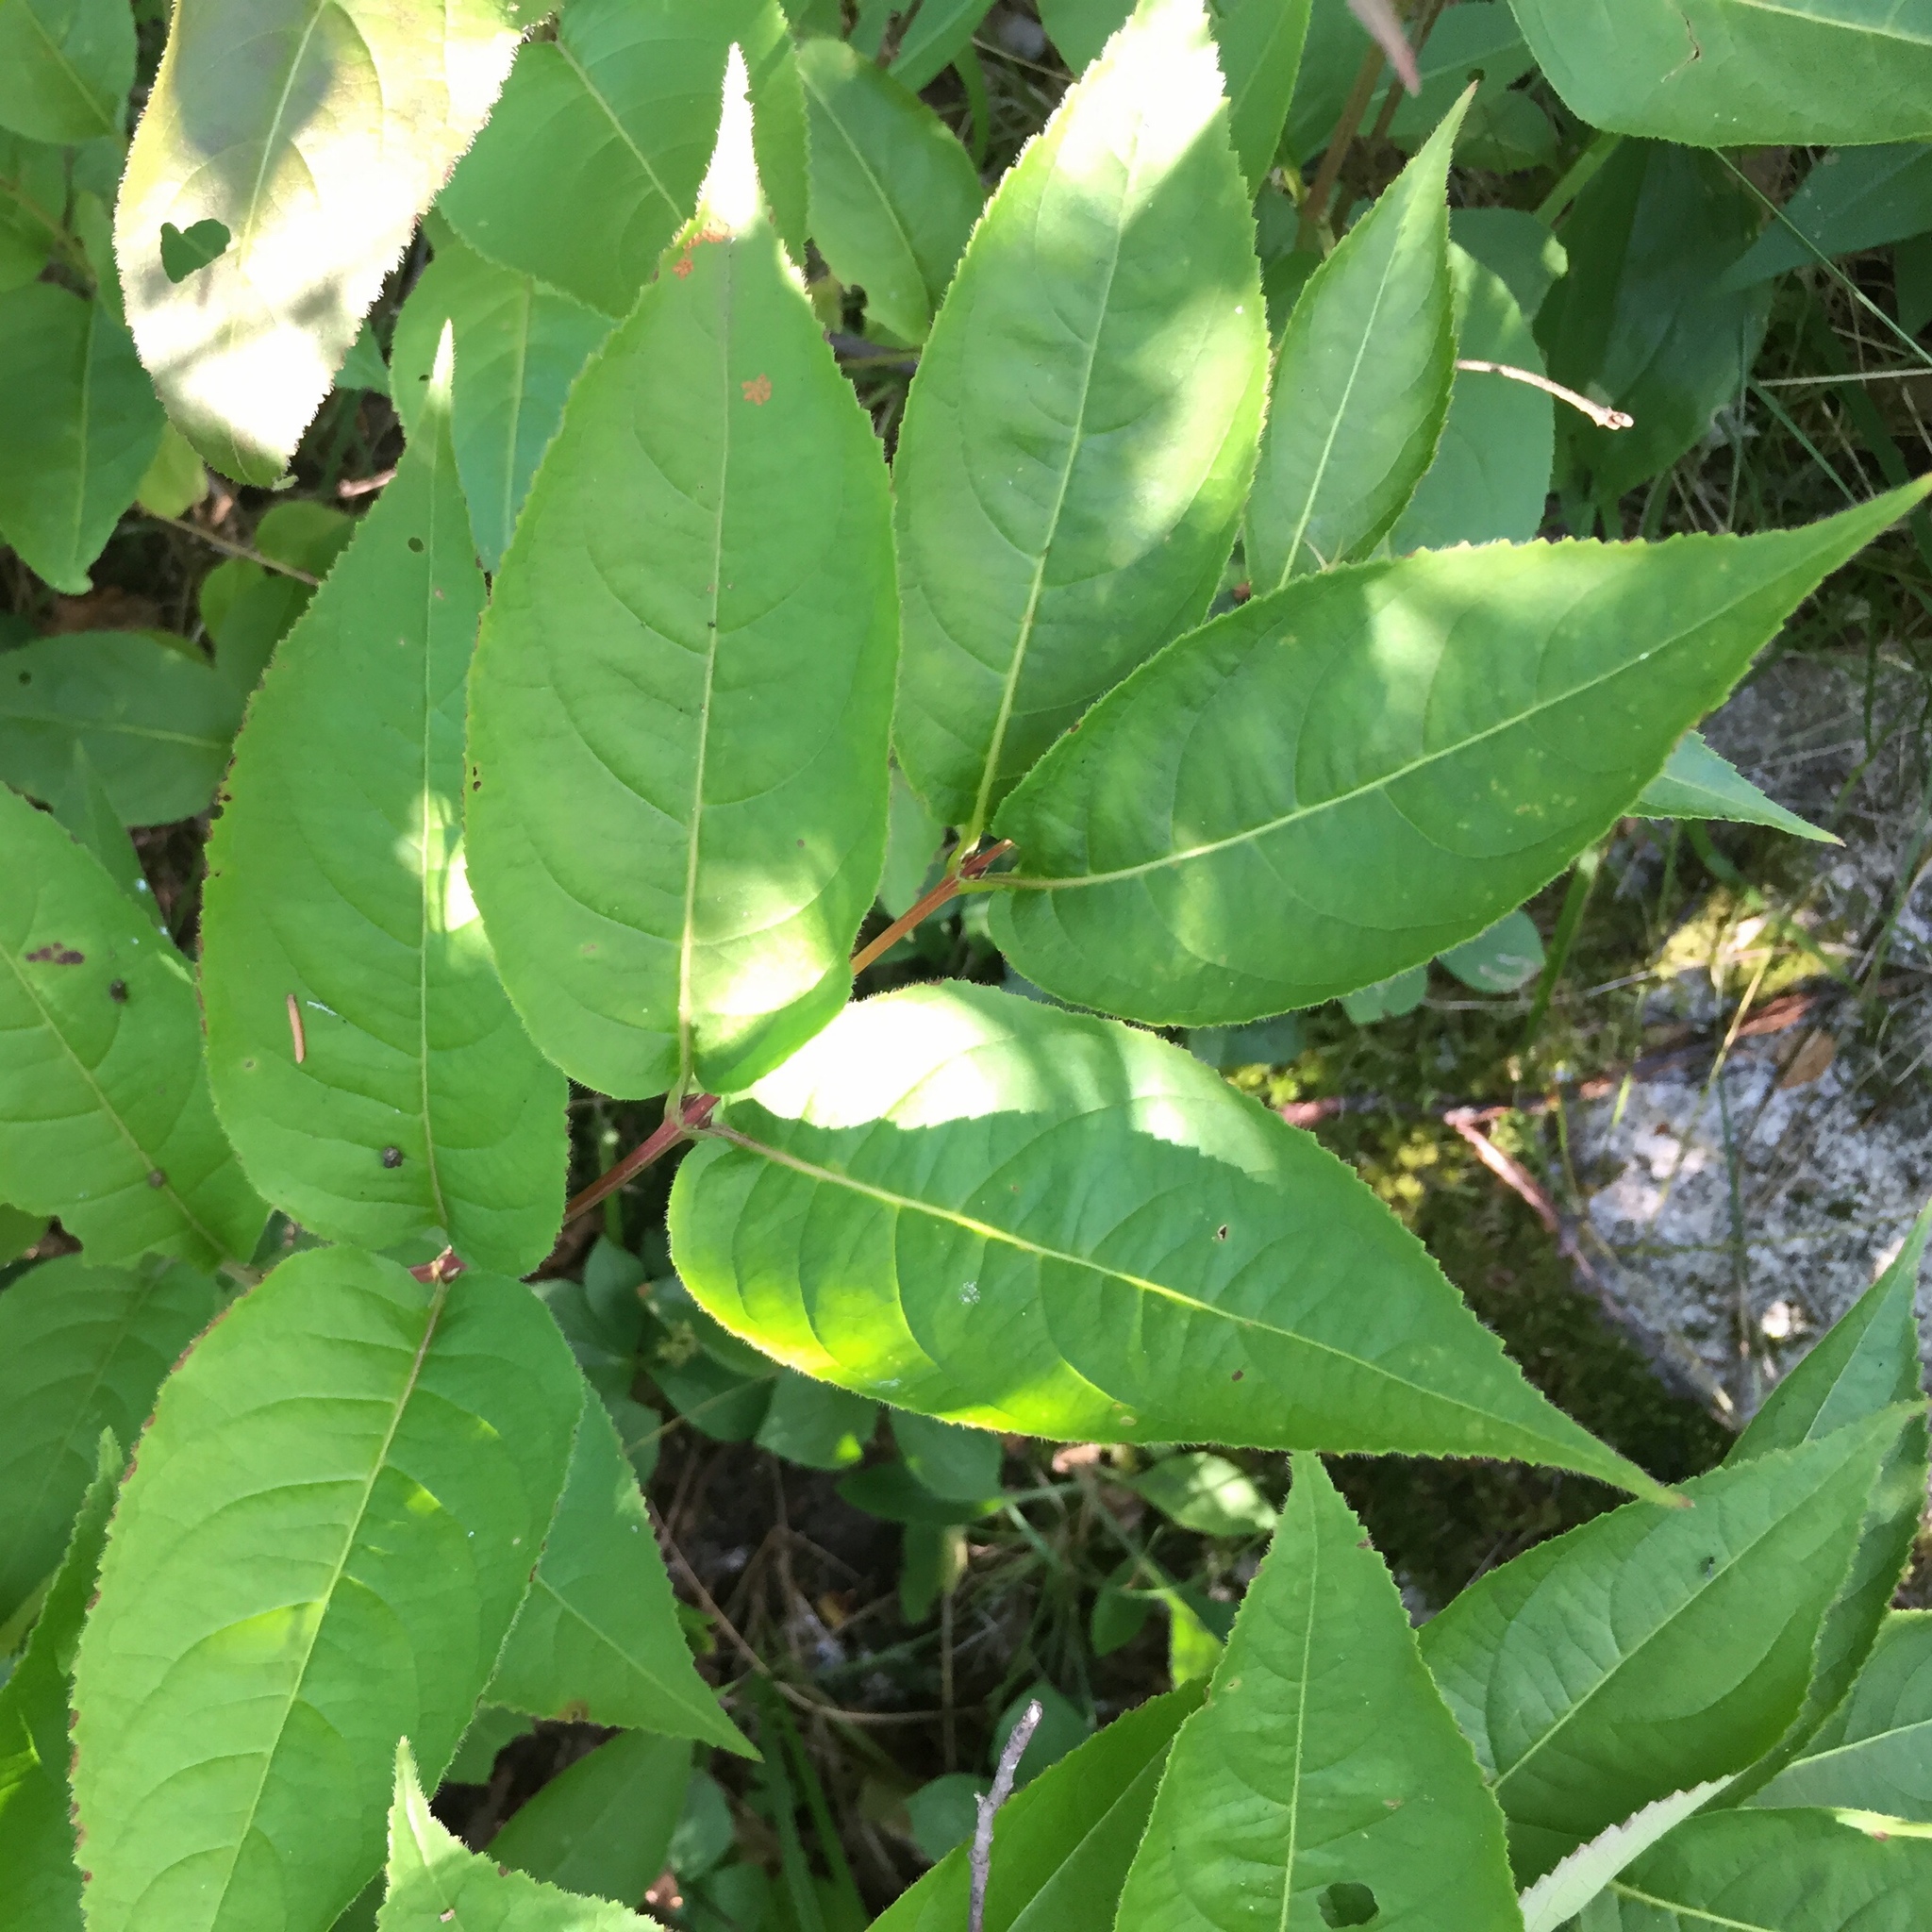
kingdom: Plantae
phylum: Tracheophyta
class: Magnoliopsida
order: Dipsacales
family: Caprifoliaceae
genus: Diervilla
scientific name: Diervilla lonicera
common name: Bush-honeysuckle
